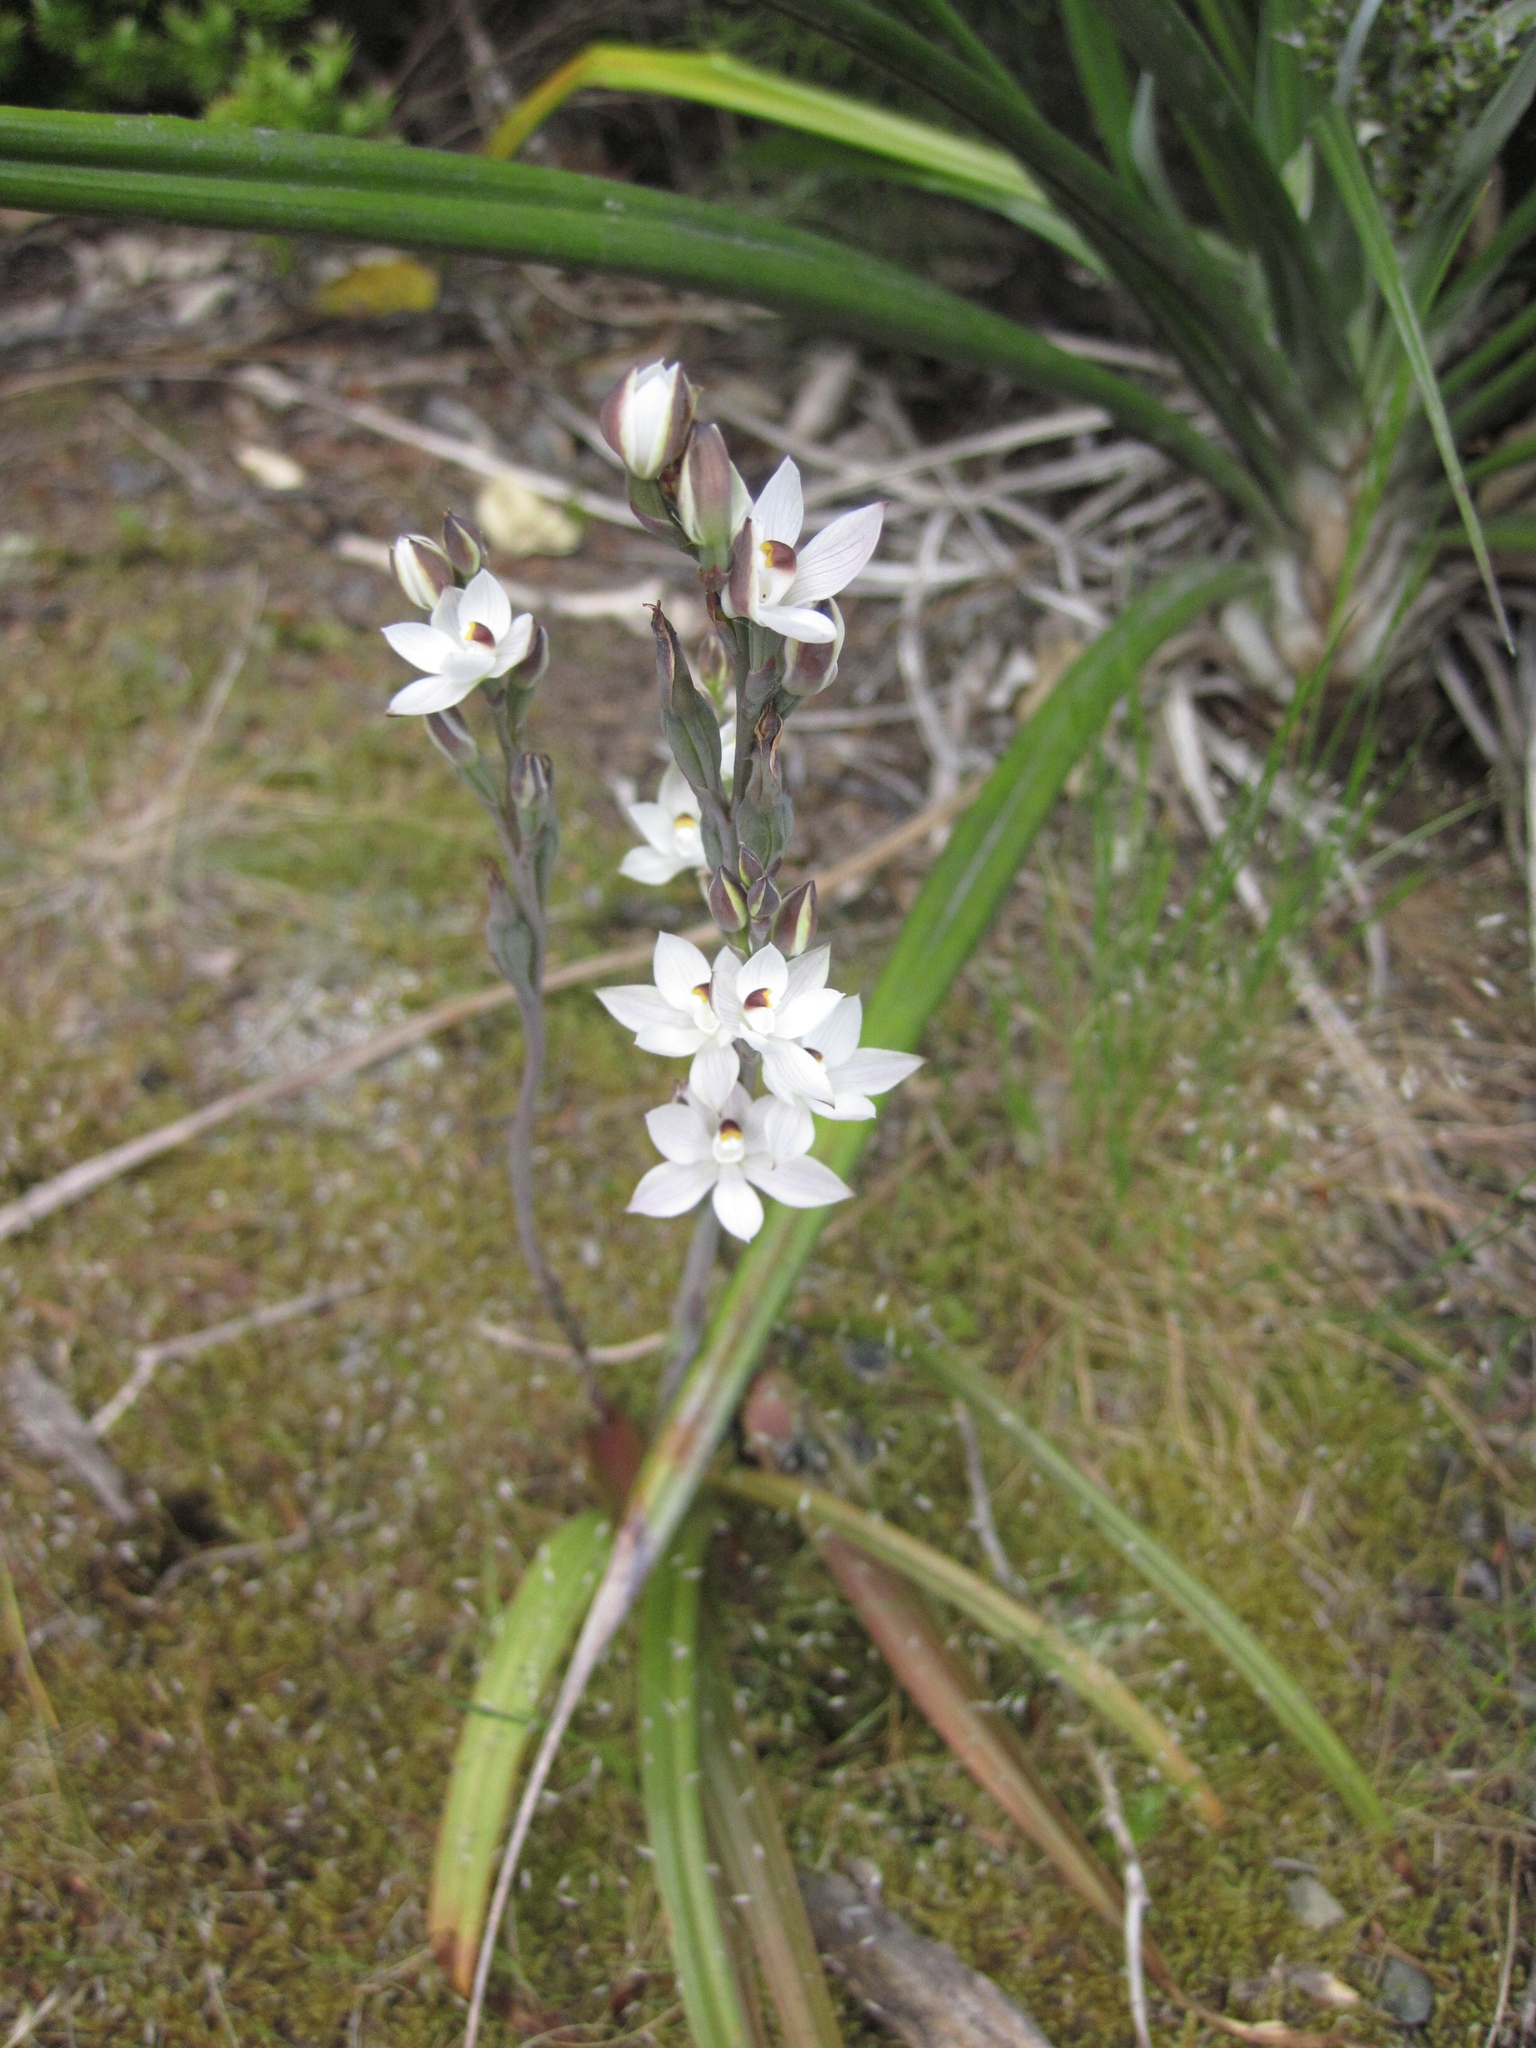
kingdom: Plantae
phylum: Tracheophyta
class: Liliopsida
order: Asparagales
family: Orchidaceae
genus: Thelymitra
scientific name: Thelymitra longifolia
